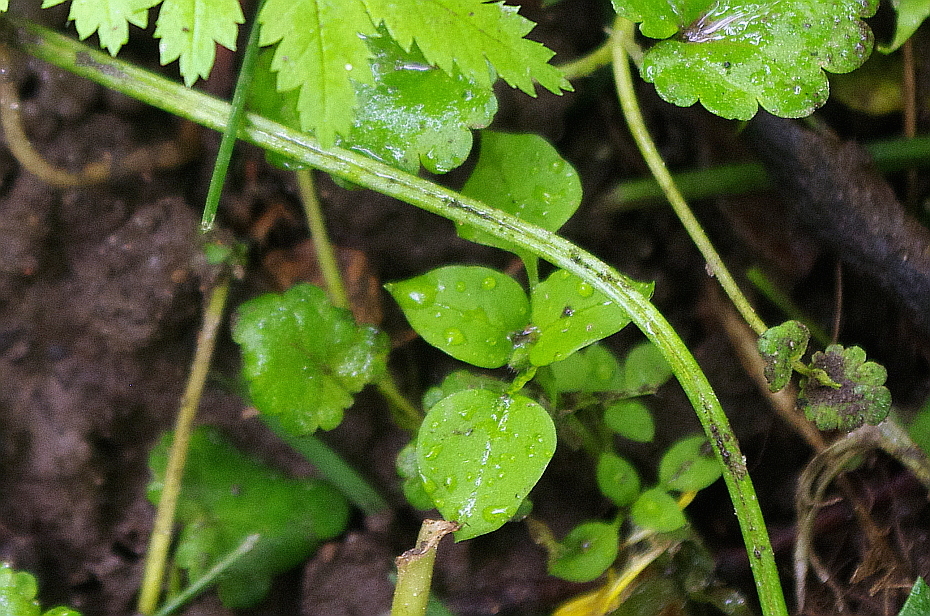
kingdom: Plantae
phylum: Tracheophyta
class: Magnoliopsida
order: Caryophyllales
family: Caryophyllaceae
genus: Stellaria
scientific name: Stellaria media
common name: Common chickweed
